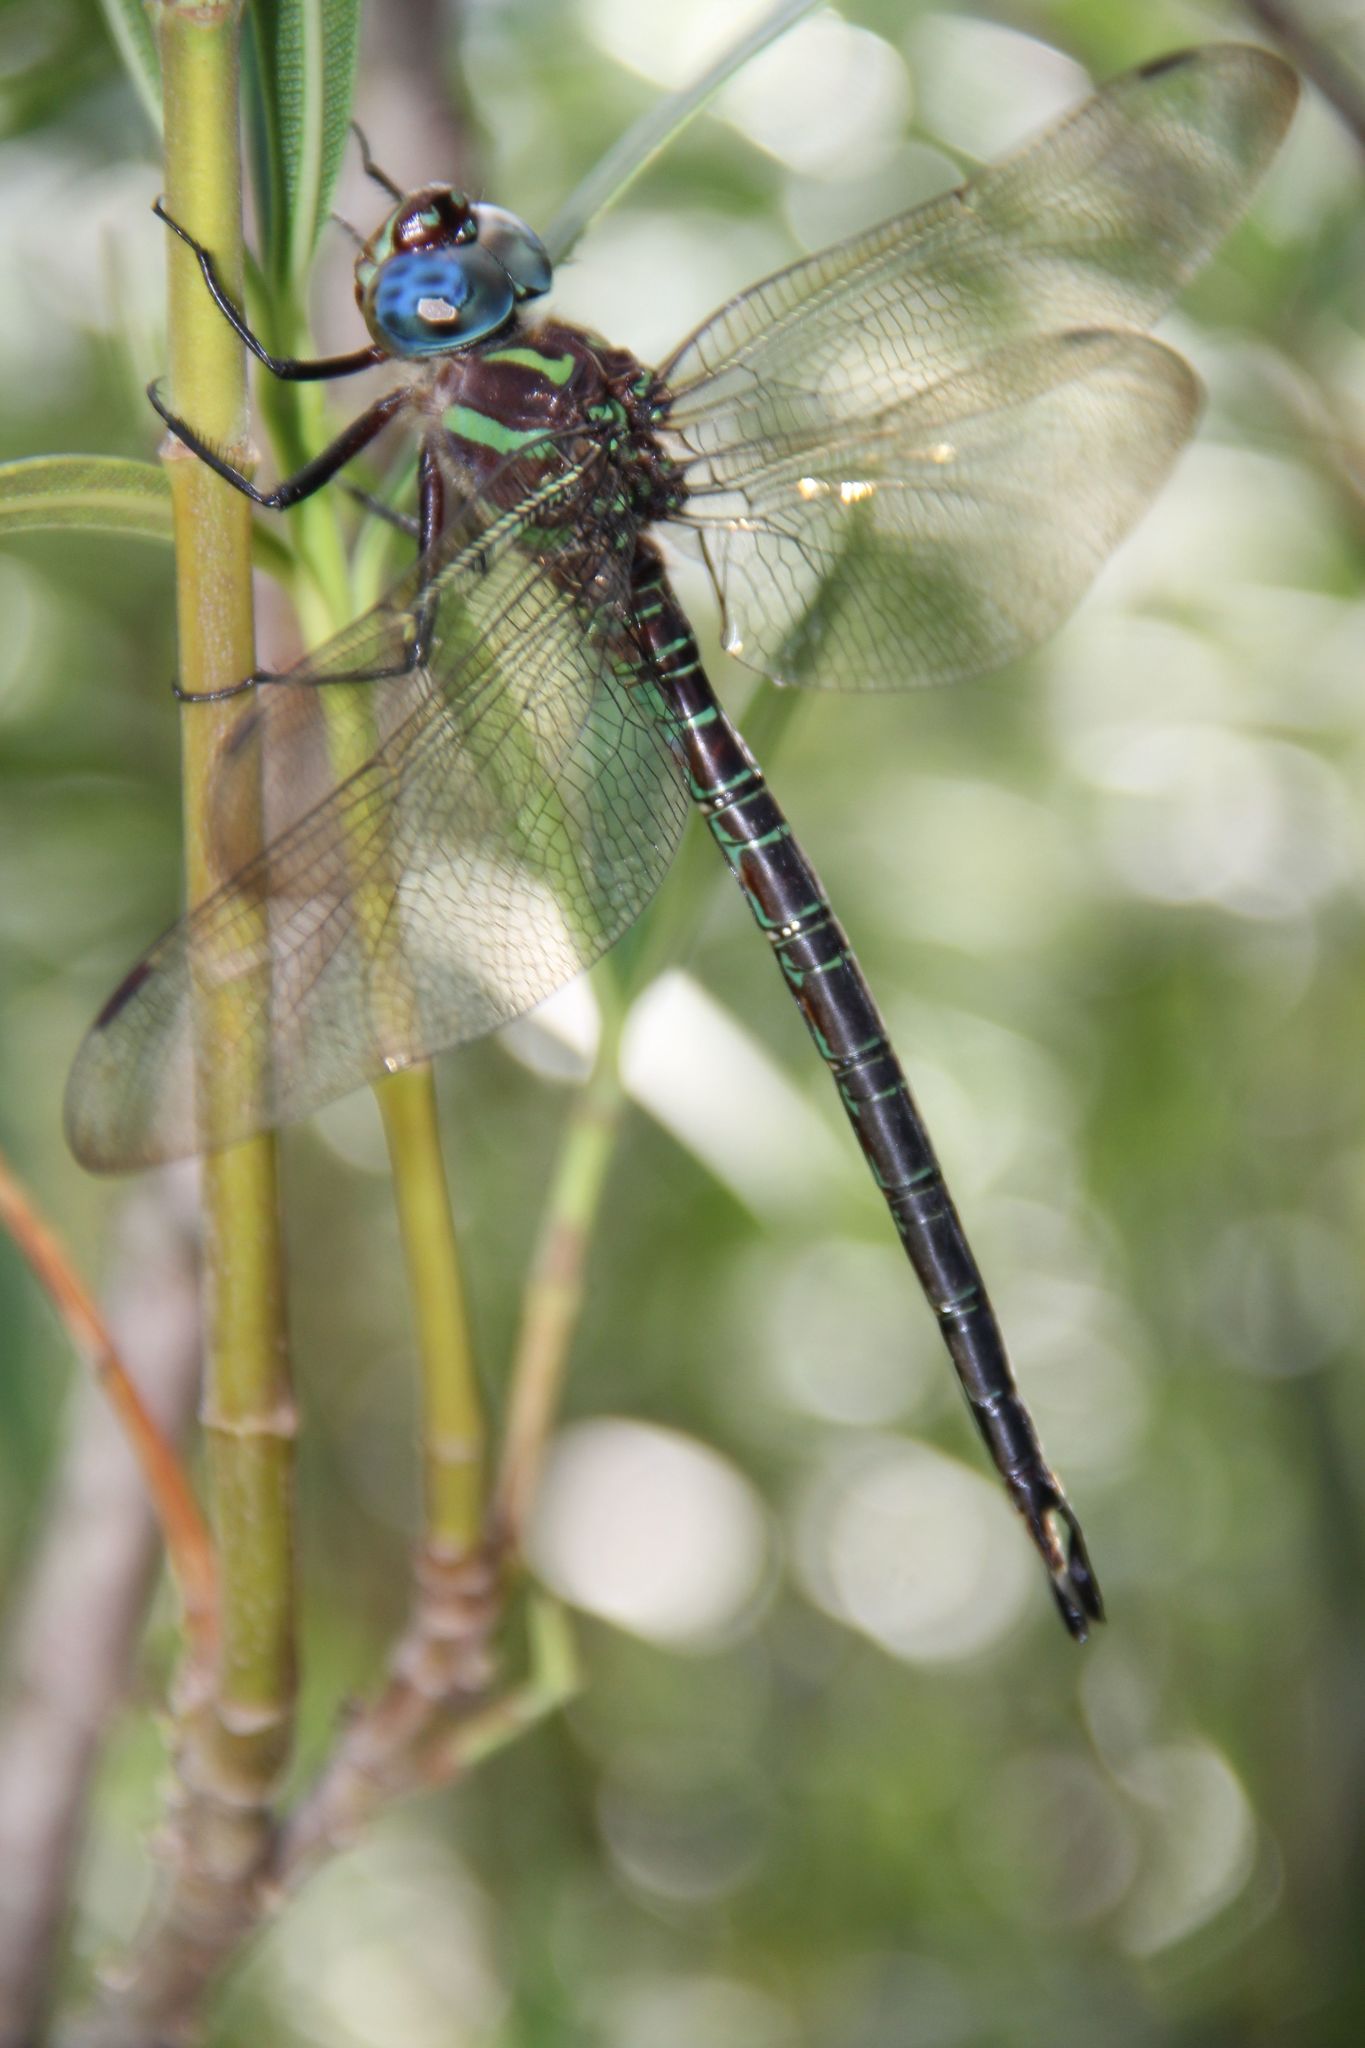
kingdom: Animalia
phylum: Arthropoda
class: Insecta
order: Odonata
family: Aeshnidae
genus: Epiaeschna
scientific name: Epiaeschna heros
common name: Swamp darner
